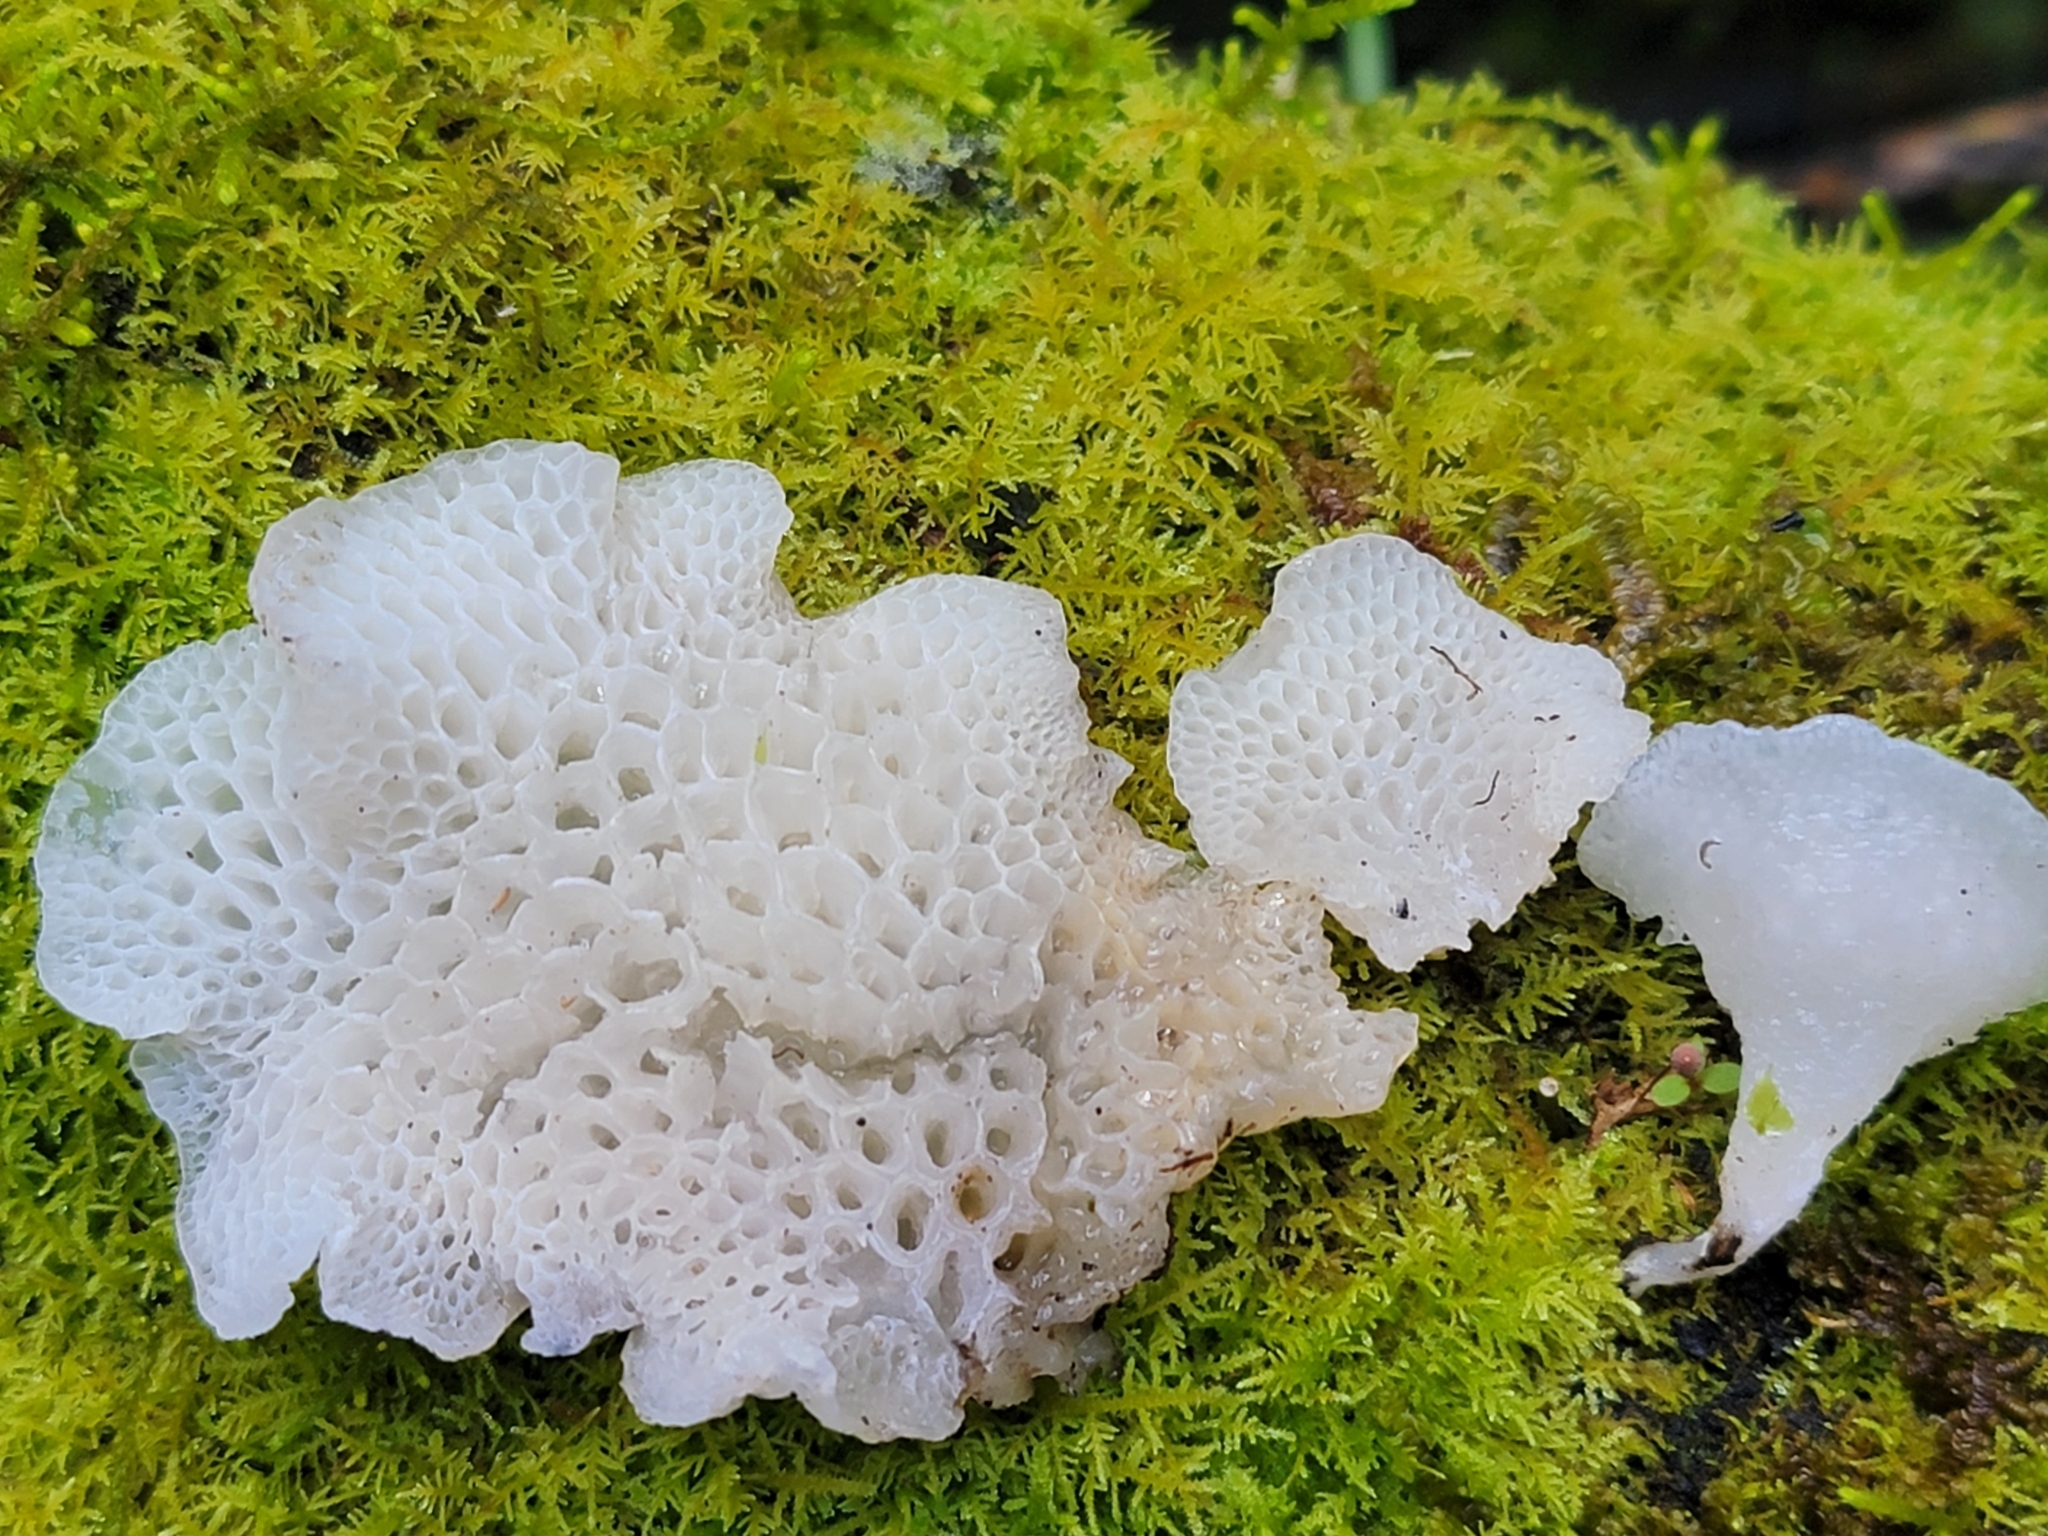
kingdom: Fungi
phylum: Basidiomycota
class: Agaricomycetes
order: Agaricales
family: Mycenaceae
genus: Favolaschia
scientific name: Favolaschia pustulosa
